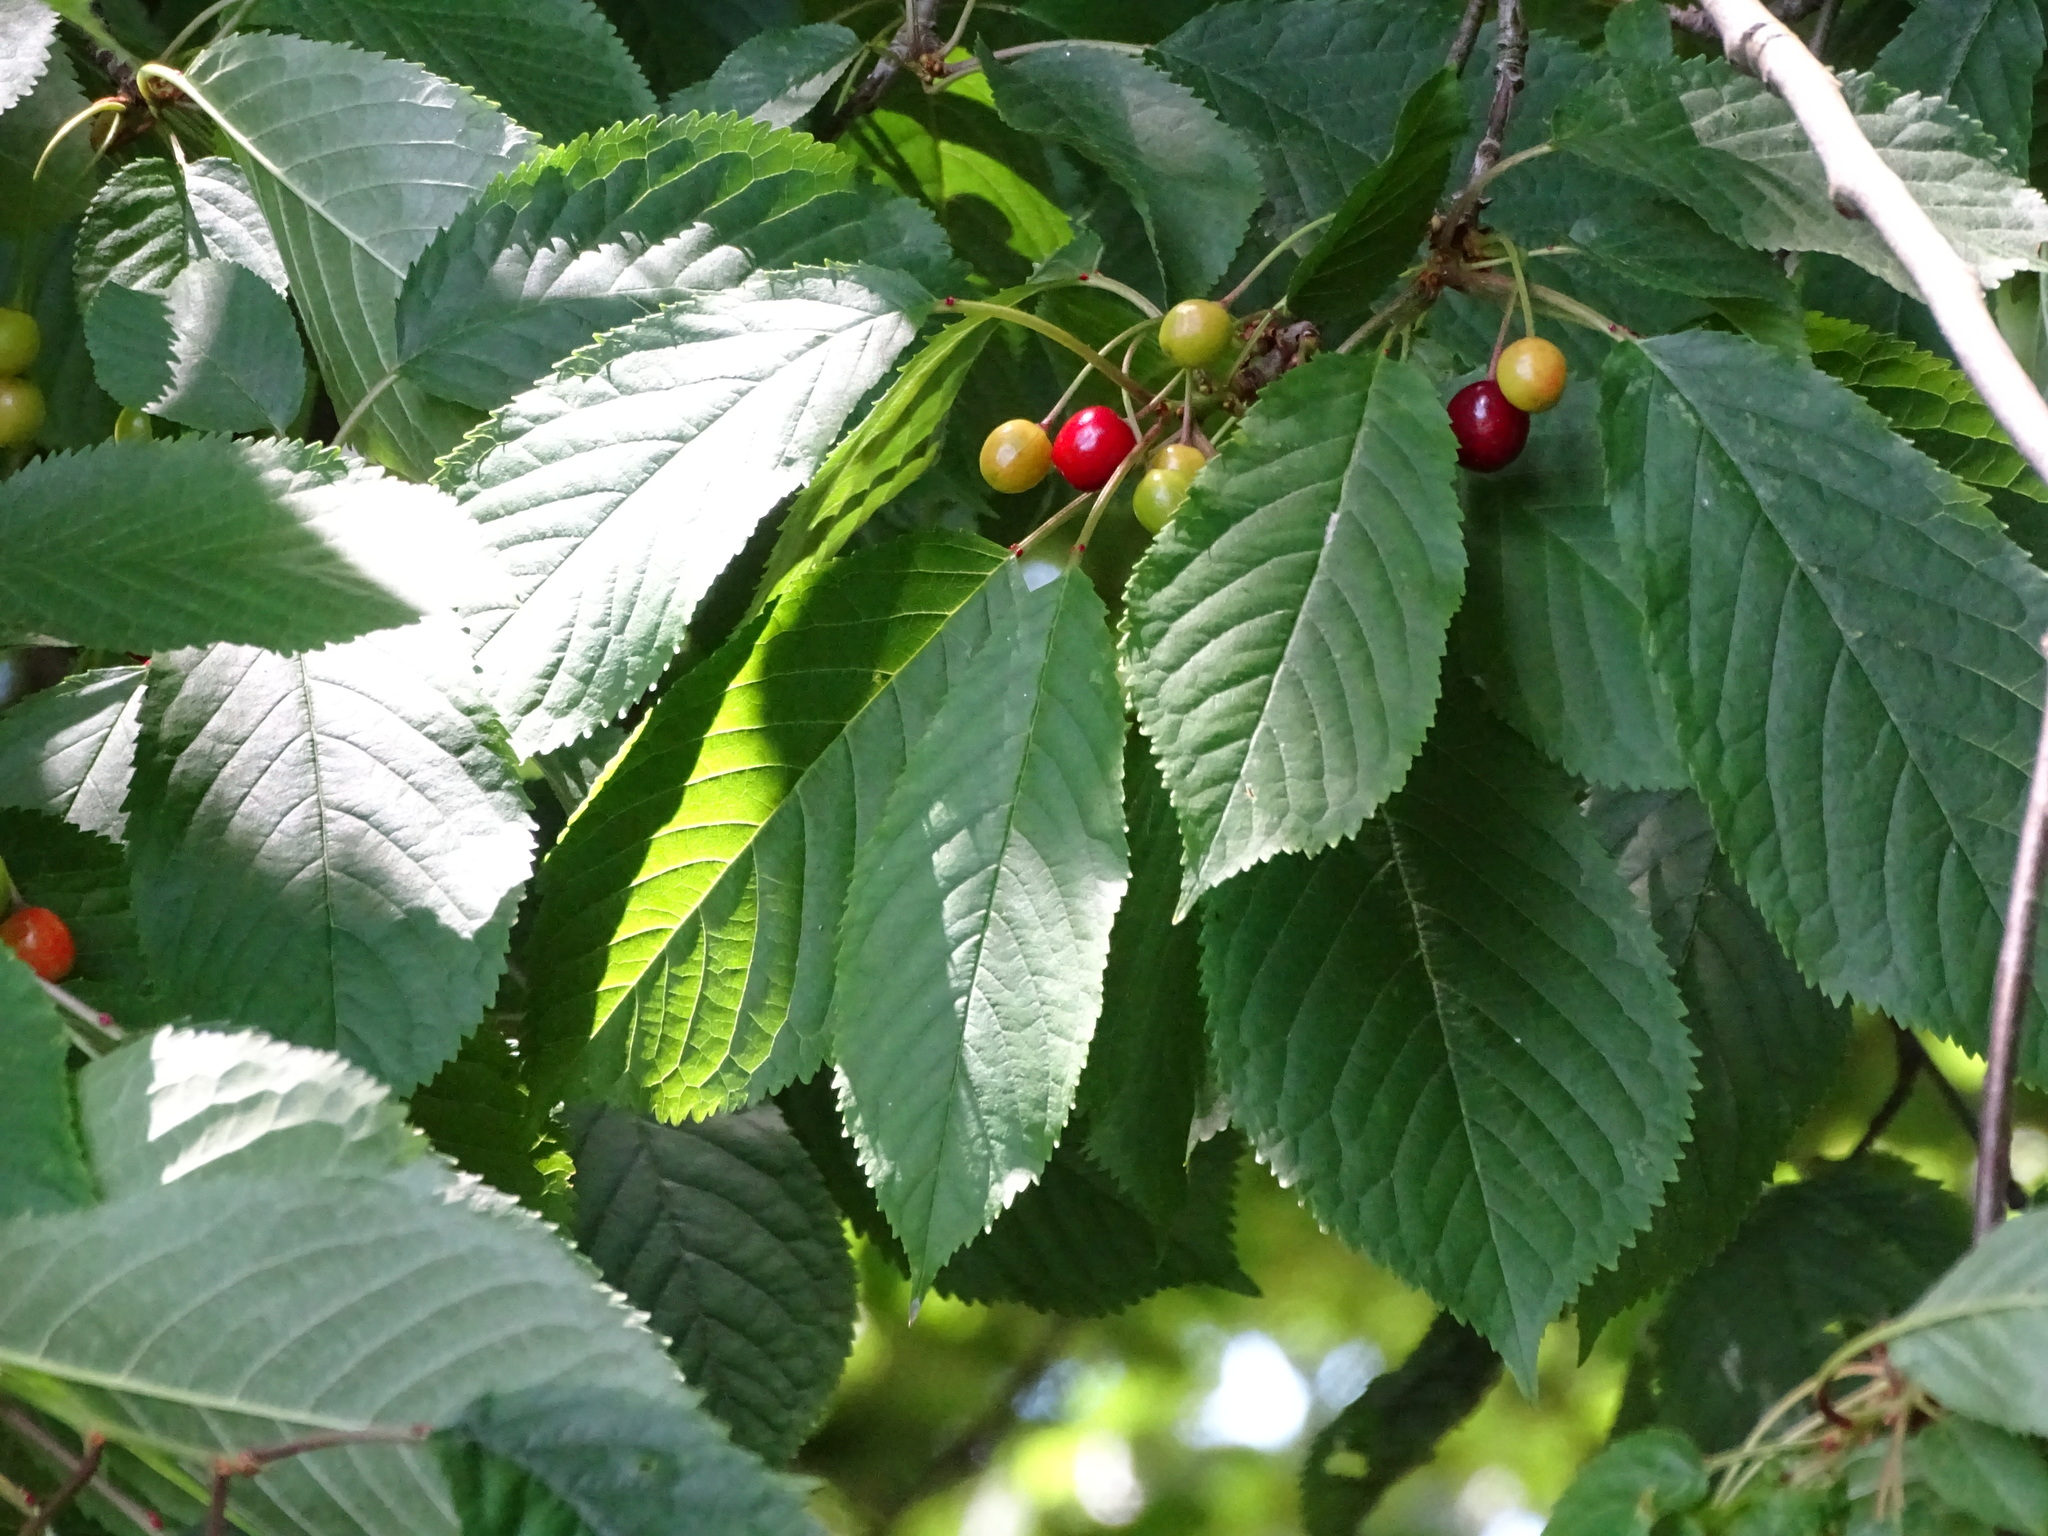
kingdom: Plantae
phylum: Tracheophyta
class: Magnoliopsida
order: Rosales
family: Rosaceae
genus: Prunus
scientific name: Prunus avium
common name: Sweet cherry
